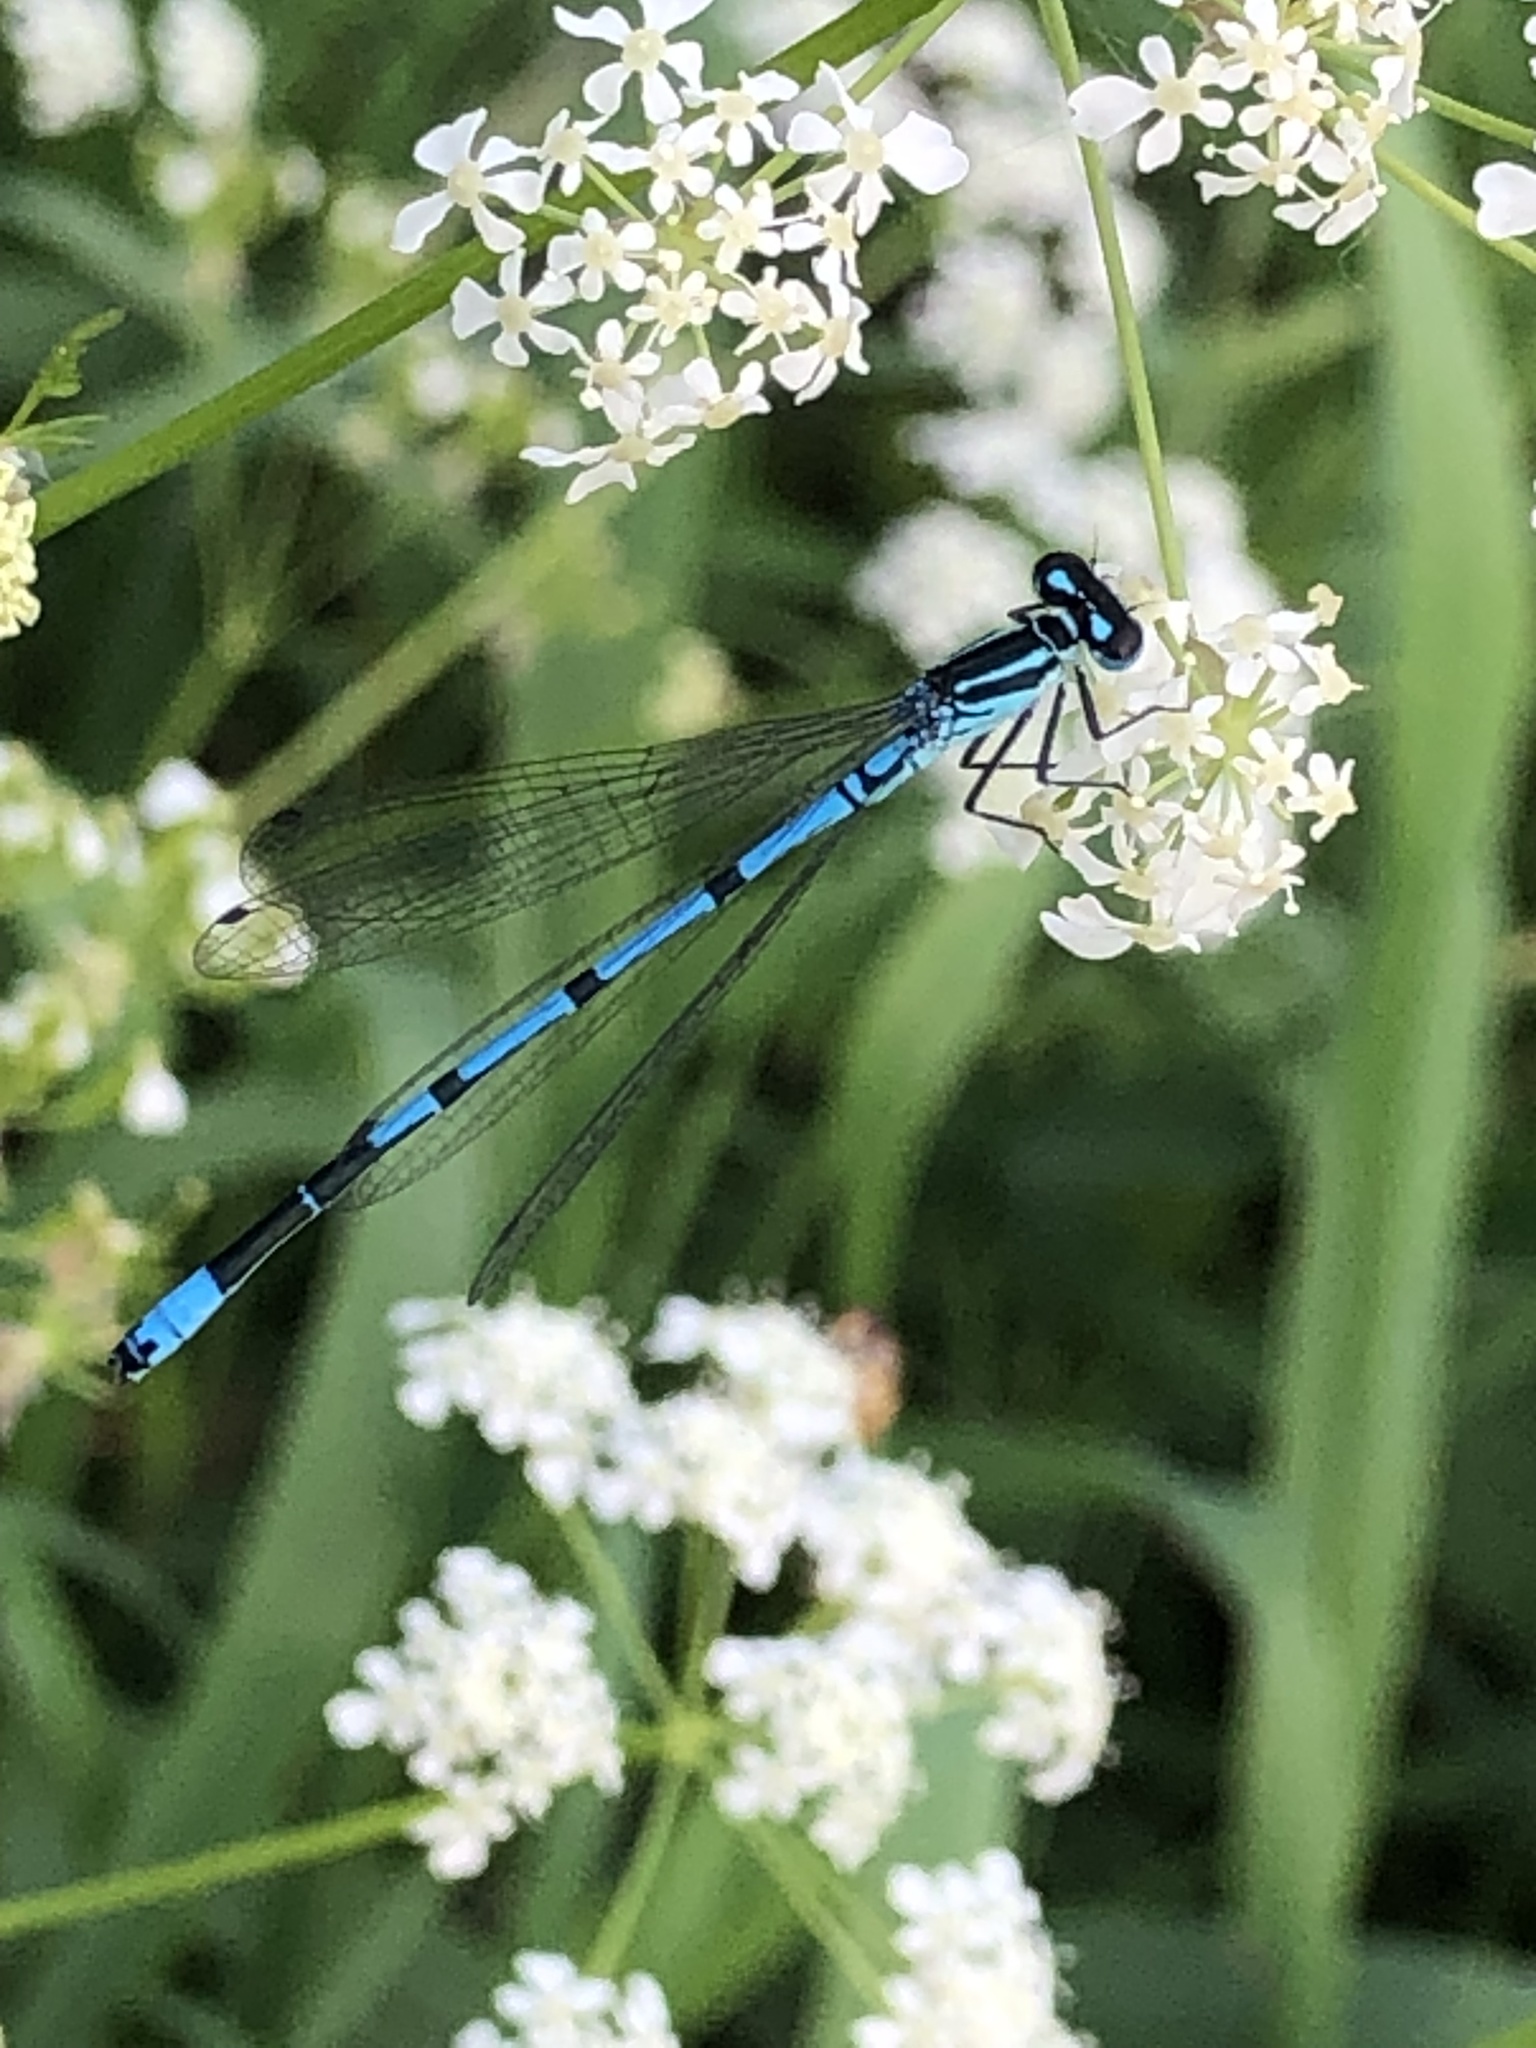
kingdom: Animalia
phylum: Arthropoda
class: Insecta
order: Odonata
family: Coenagrionidae
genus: Coenagrion
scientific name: Coenagrion puella
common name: Azure damselfly
